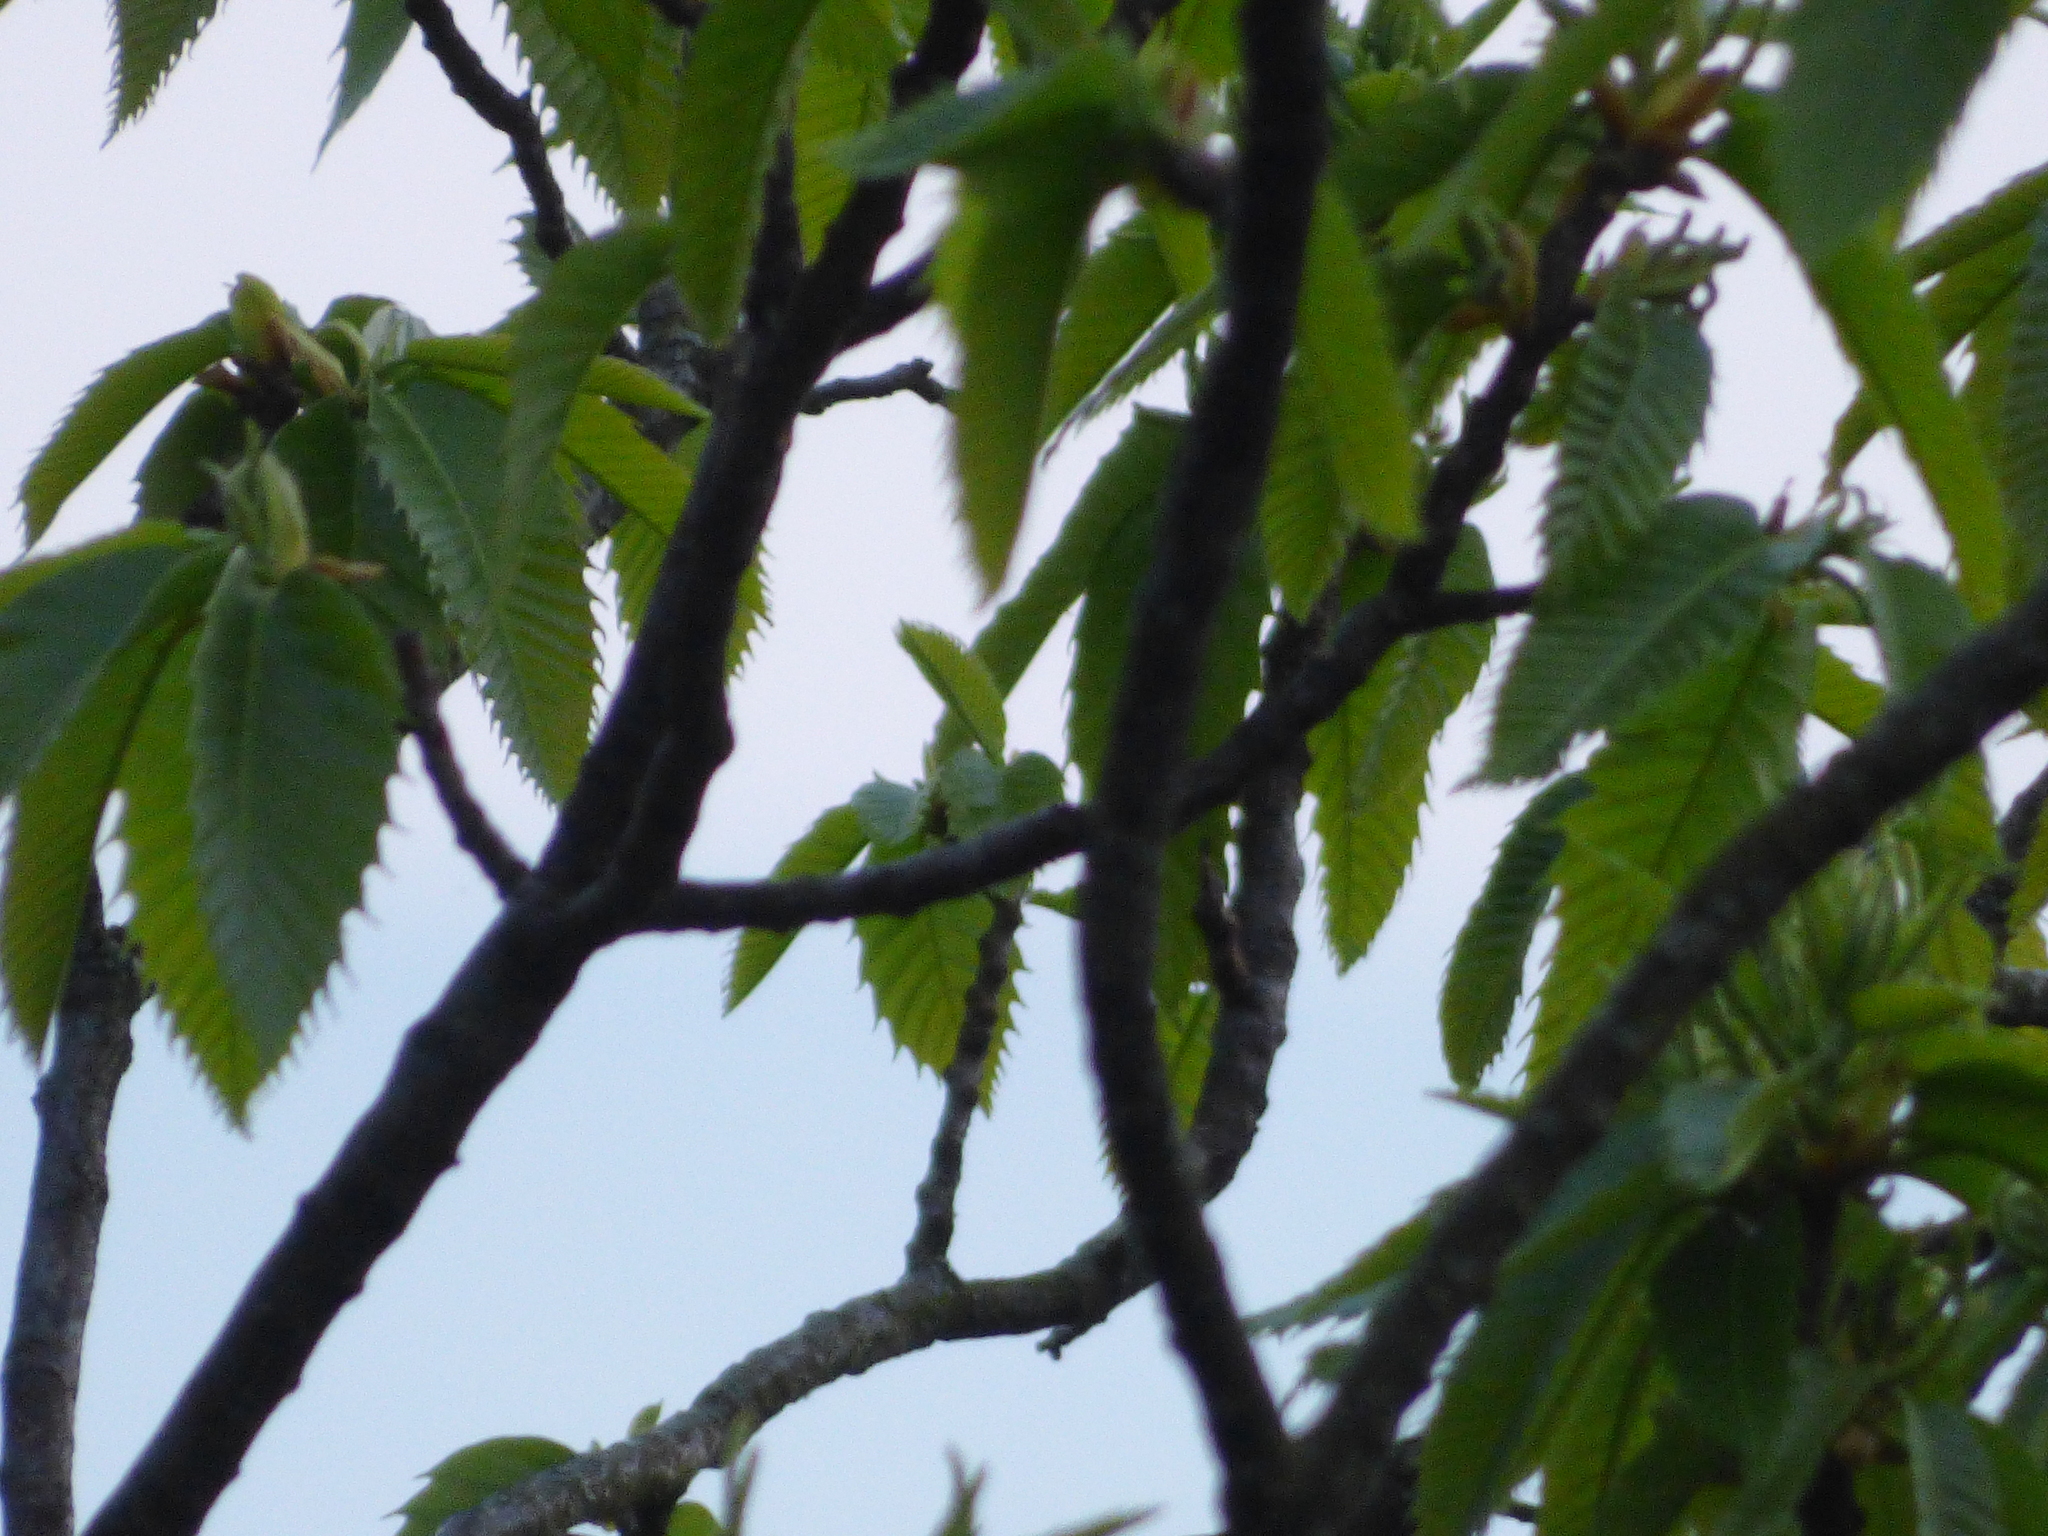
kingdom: Plantae
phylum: Tracheophyta
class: Magnoliopsida
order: Fagales
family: Fagaceae
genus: Castanea
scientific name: Castanea sativa
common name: Sweet chestnut
